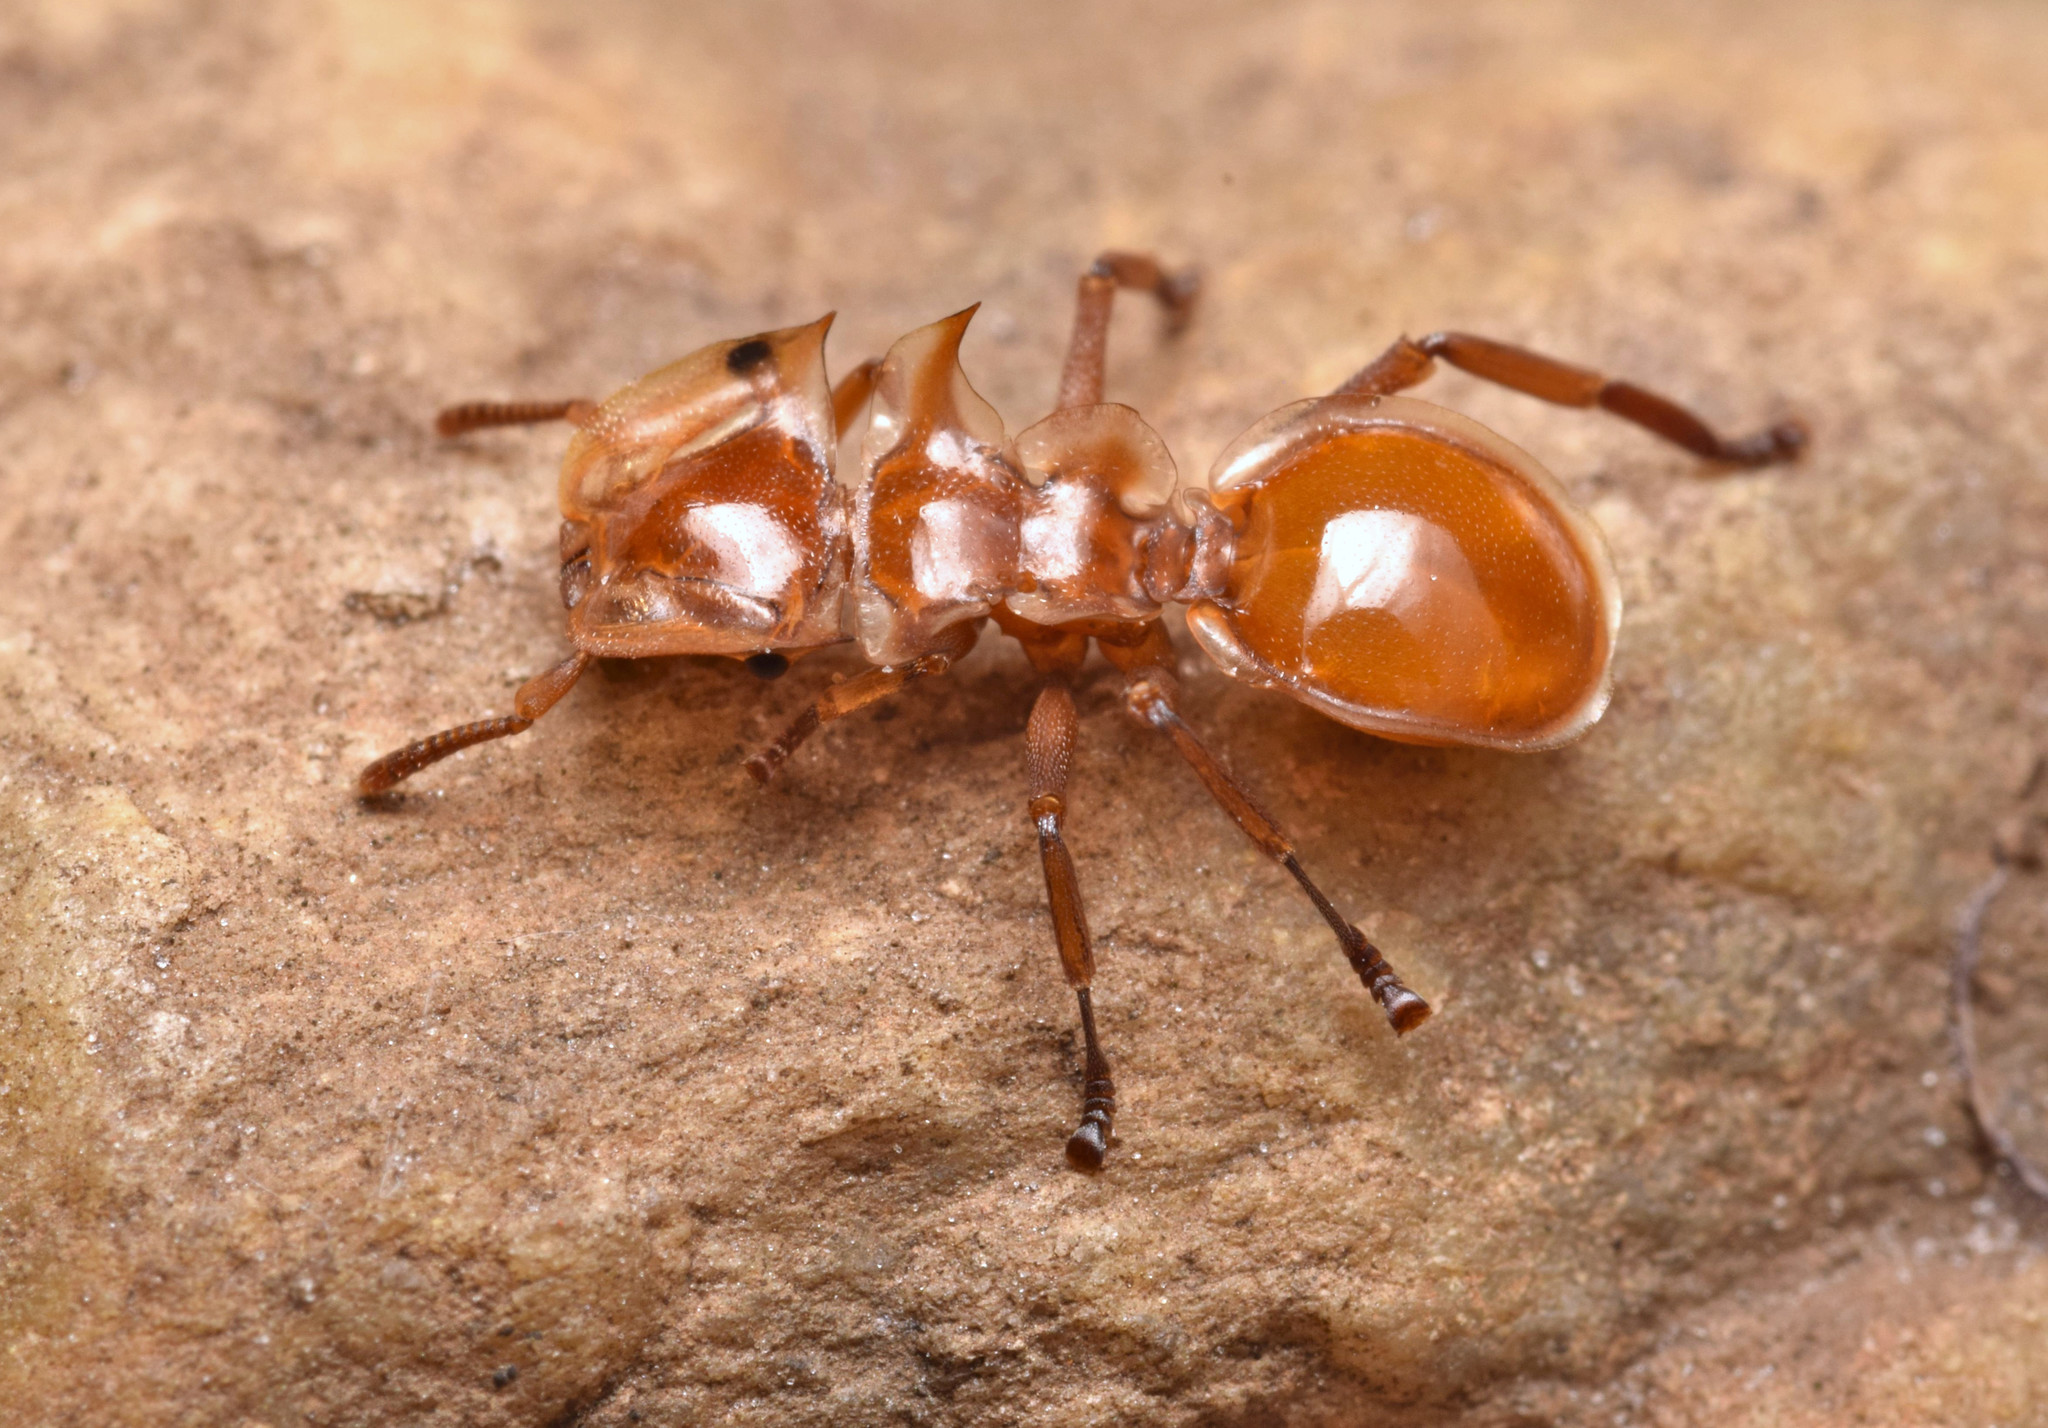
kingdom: Animalia
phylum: Arthropoda
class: Insecta
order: Hymenoptera
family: Formicidae
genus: Cephalotes
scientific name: Cephalotes clypeatus
